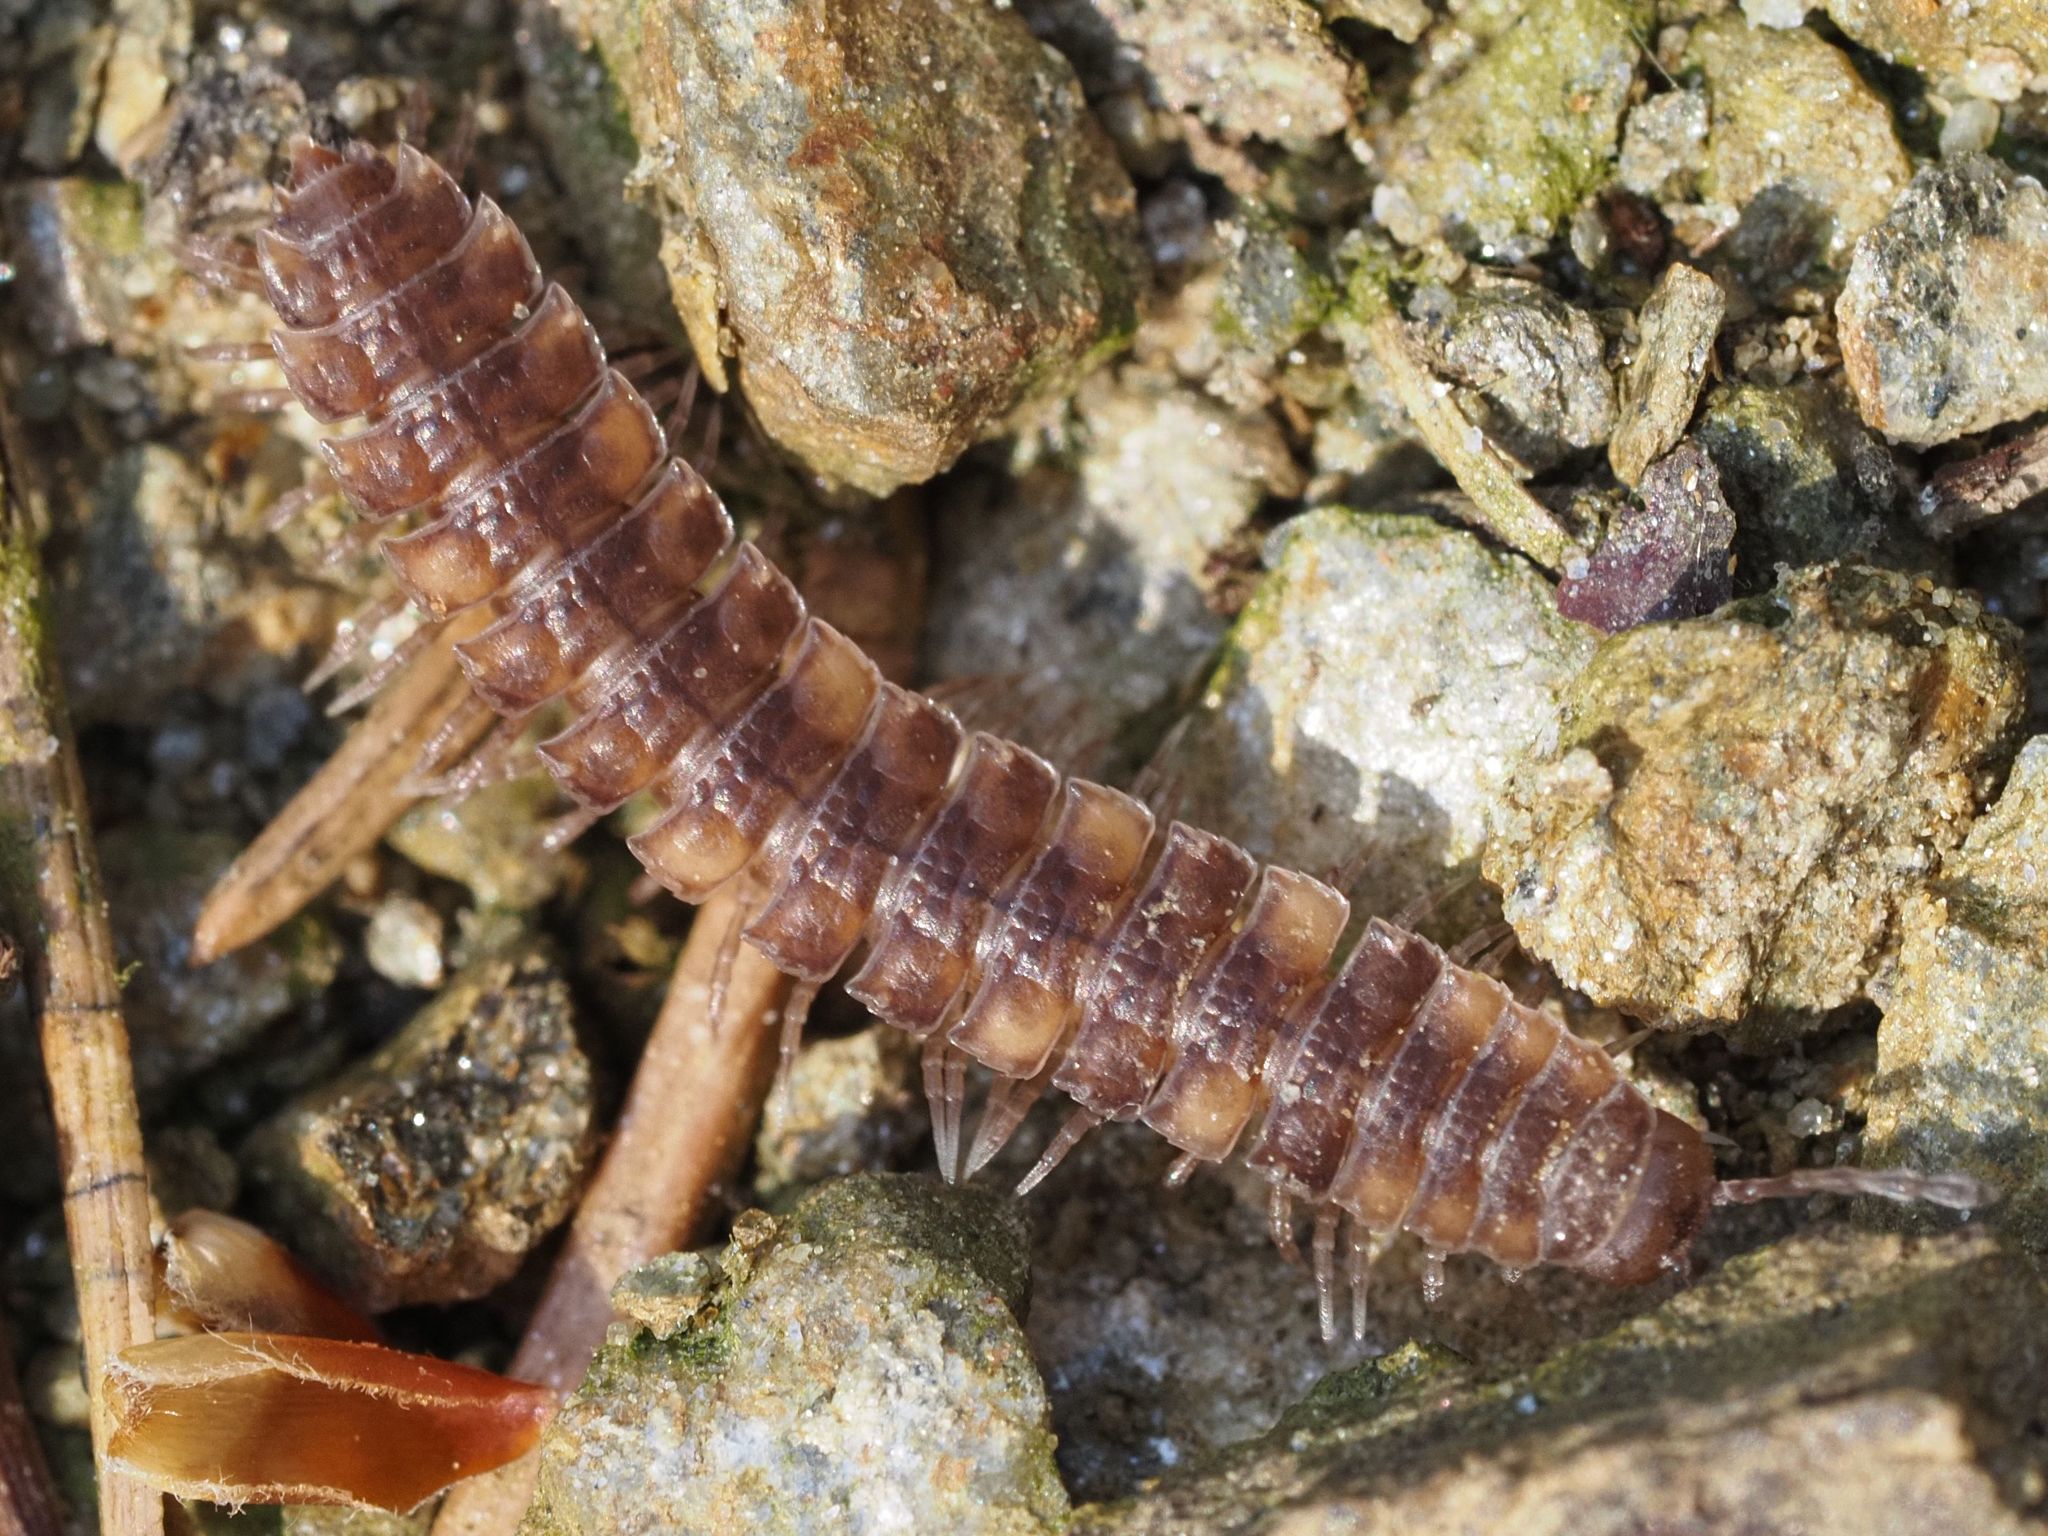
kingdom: Animalia
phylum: Arthropoda
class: Diplopoda
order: Polydesmida
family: Polydesmidae
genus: Polydesmus
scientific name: Polydesmus complanatus
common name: Flat-backed millipede
